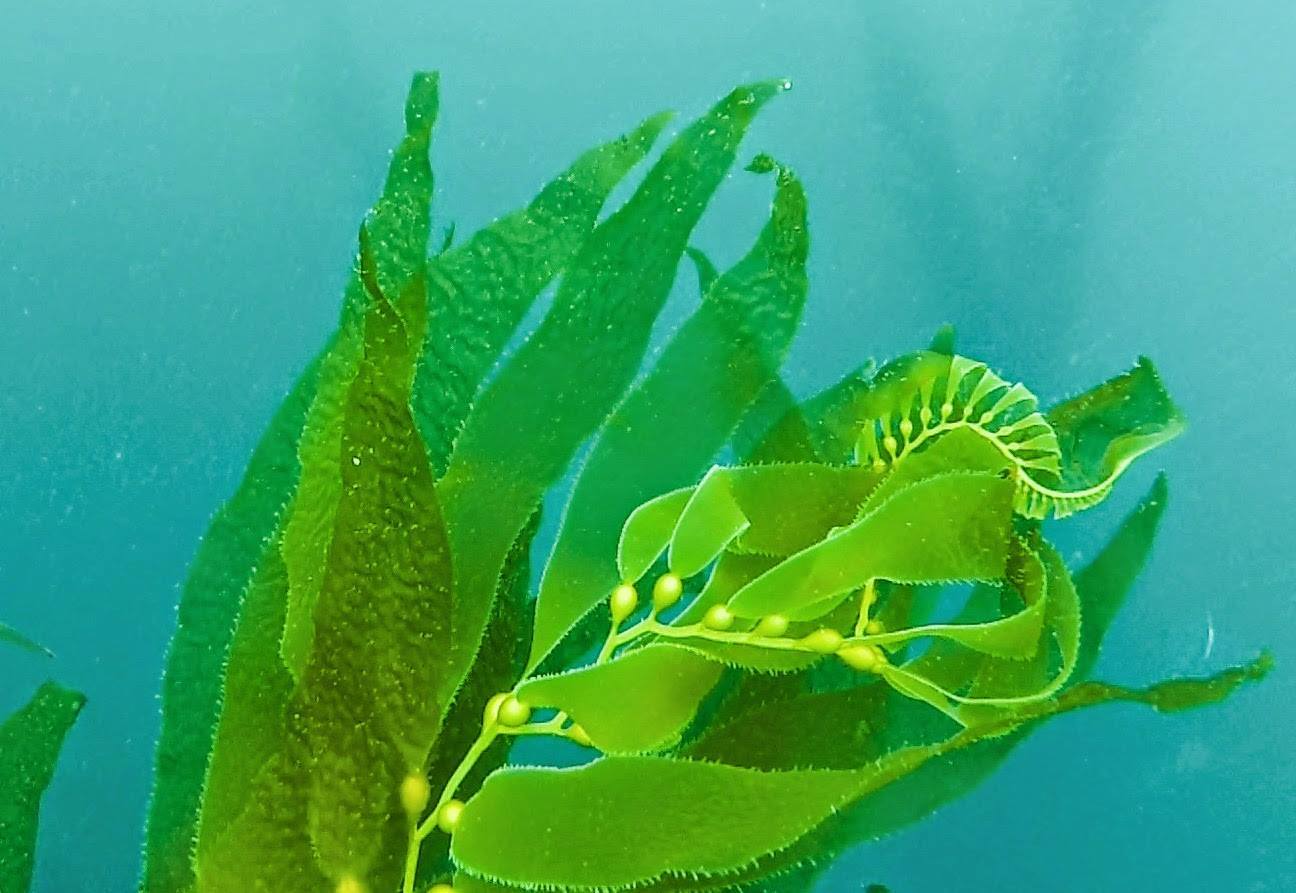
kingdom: Chromista
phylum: Ochrophyta
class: Phaeophyceae
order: Laminariales
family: Laminariaceae
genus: Macrocystis
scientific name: Macrocystis pyrifera
